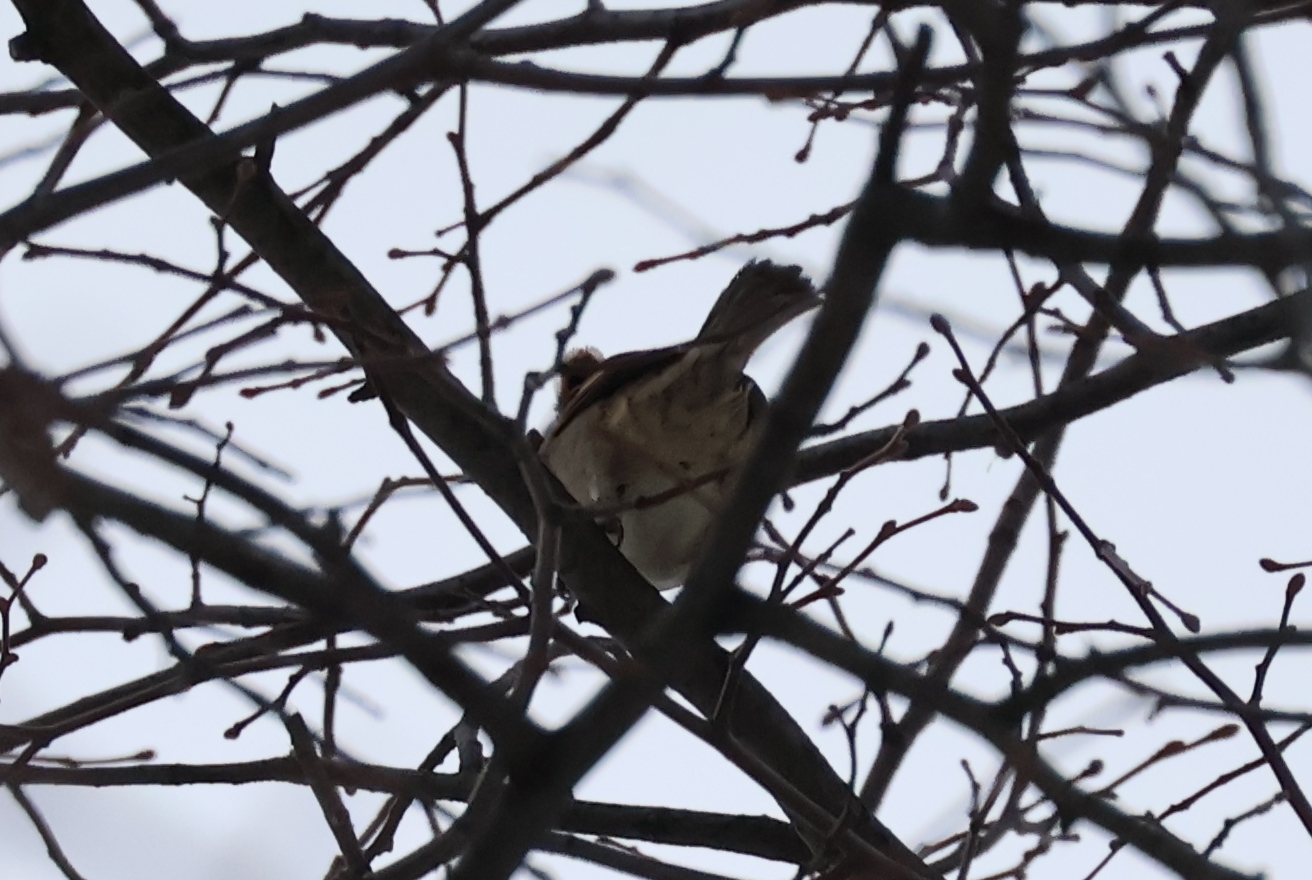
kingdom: Animalia
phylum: Chordata
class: Aves
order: Passeriformes
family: Passeridae
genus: Passer
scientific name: Passer domesticus
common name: House sparrow
